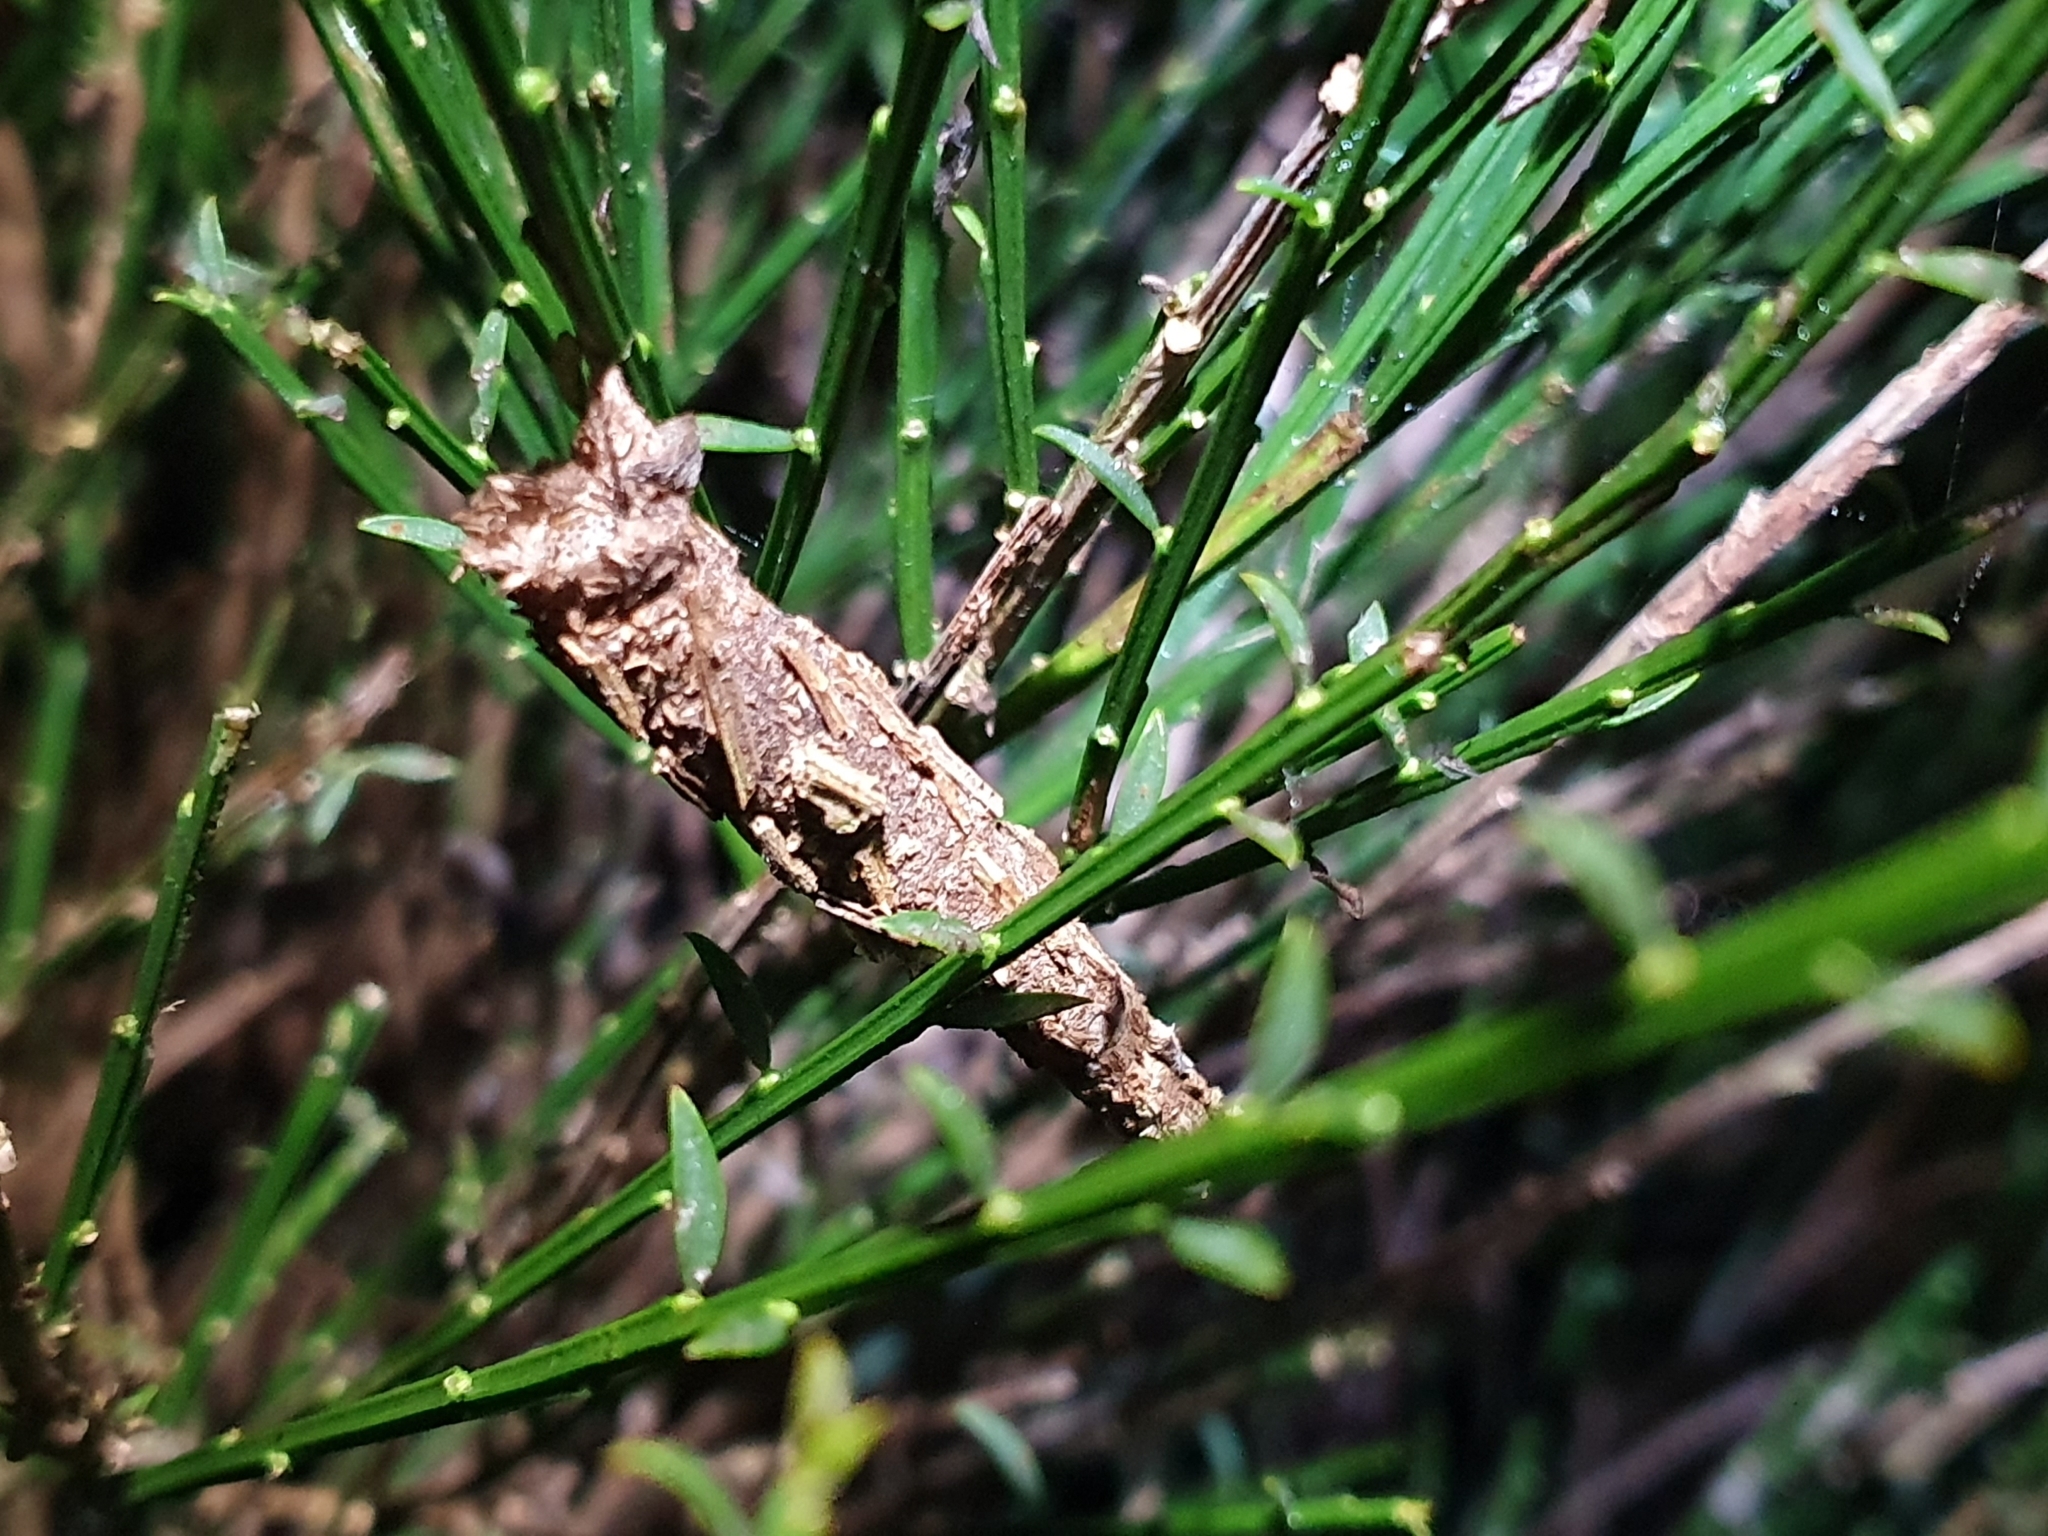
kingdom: Animalia
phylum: Arthropoda
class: Insecta
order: Lepidoptera
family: Psychidae
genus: Liothula
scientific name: Liothula omnivora
